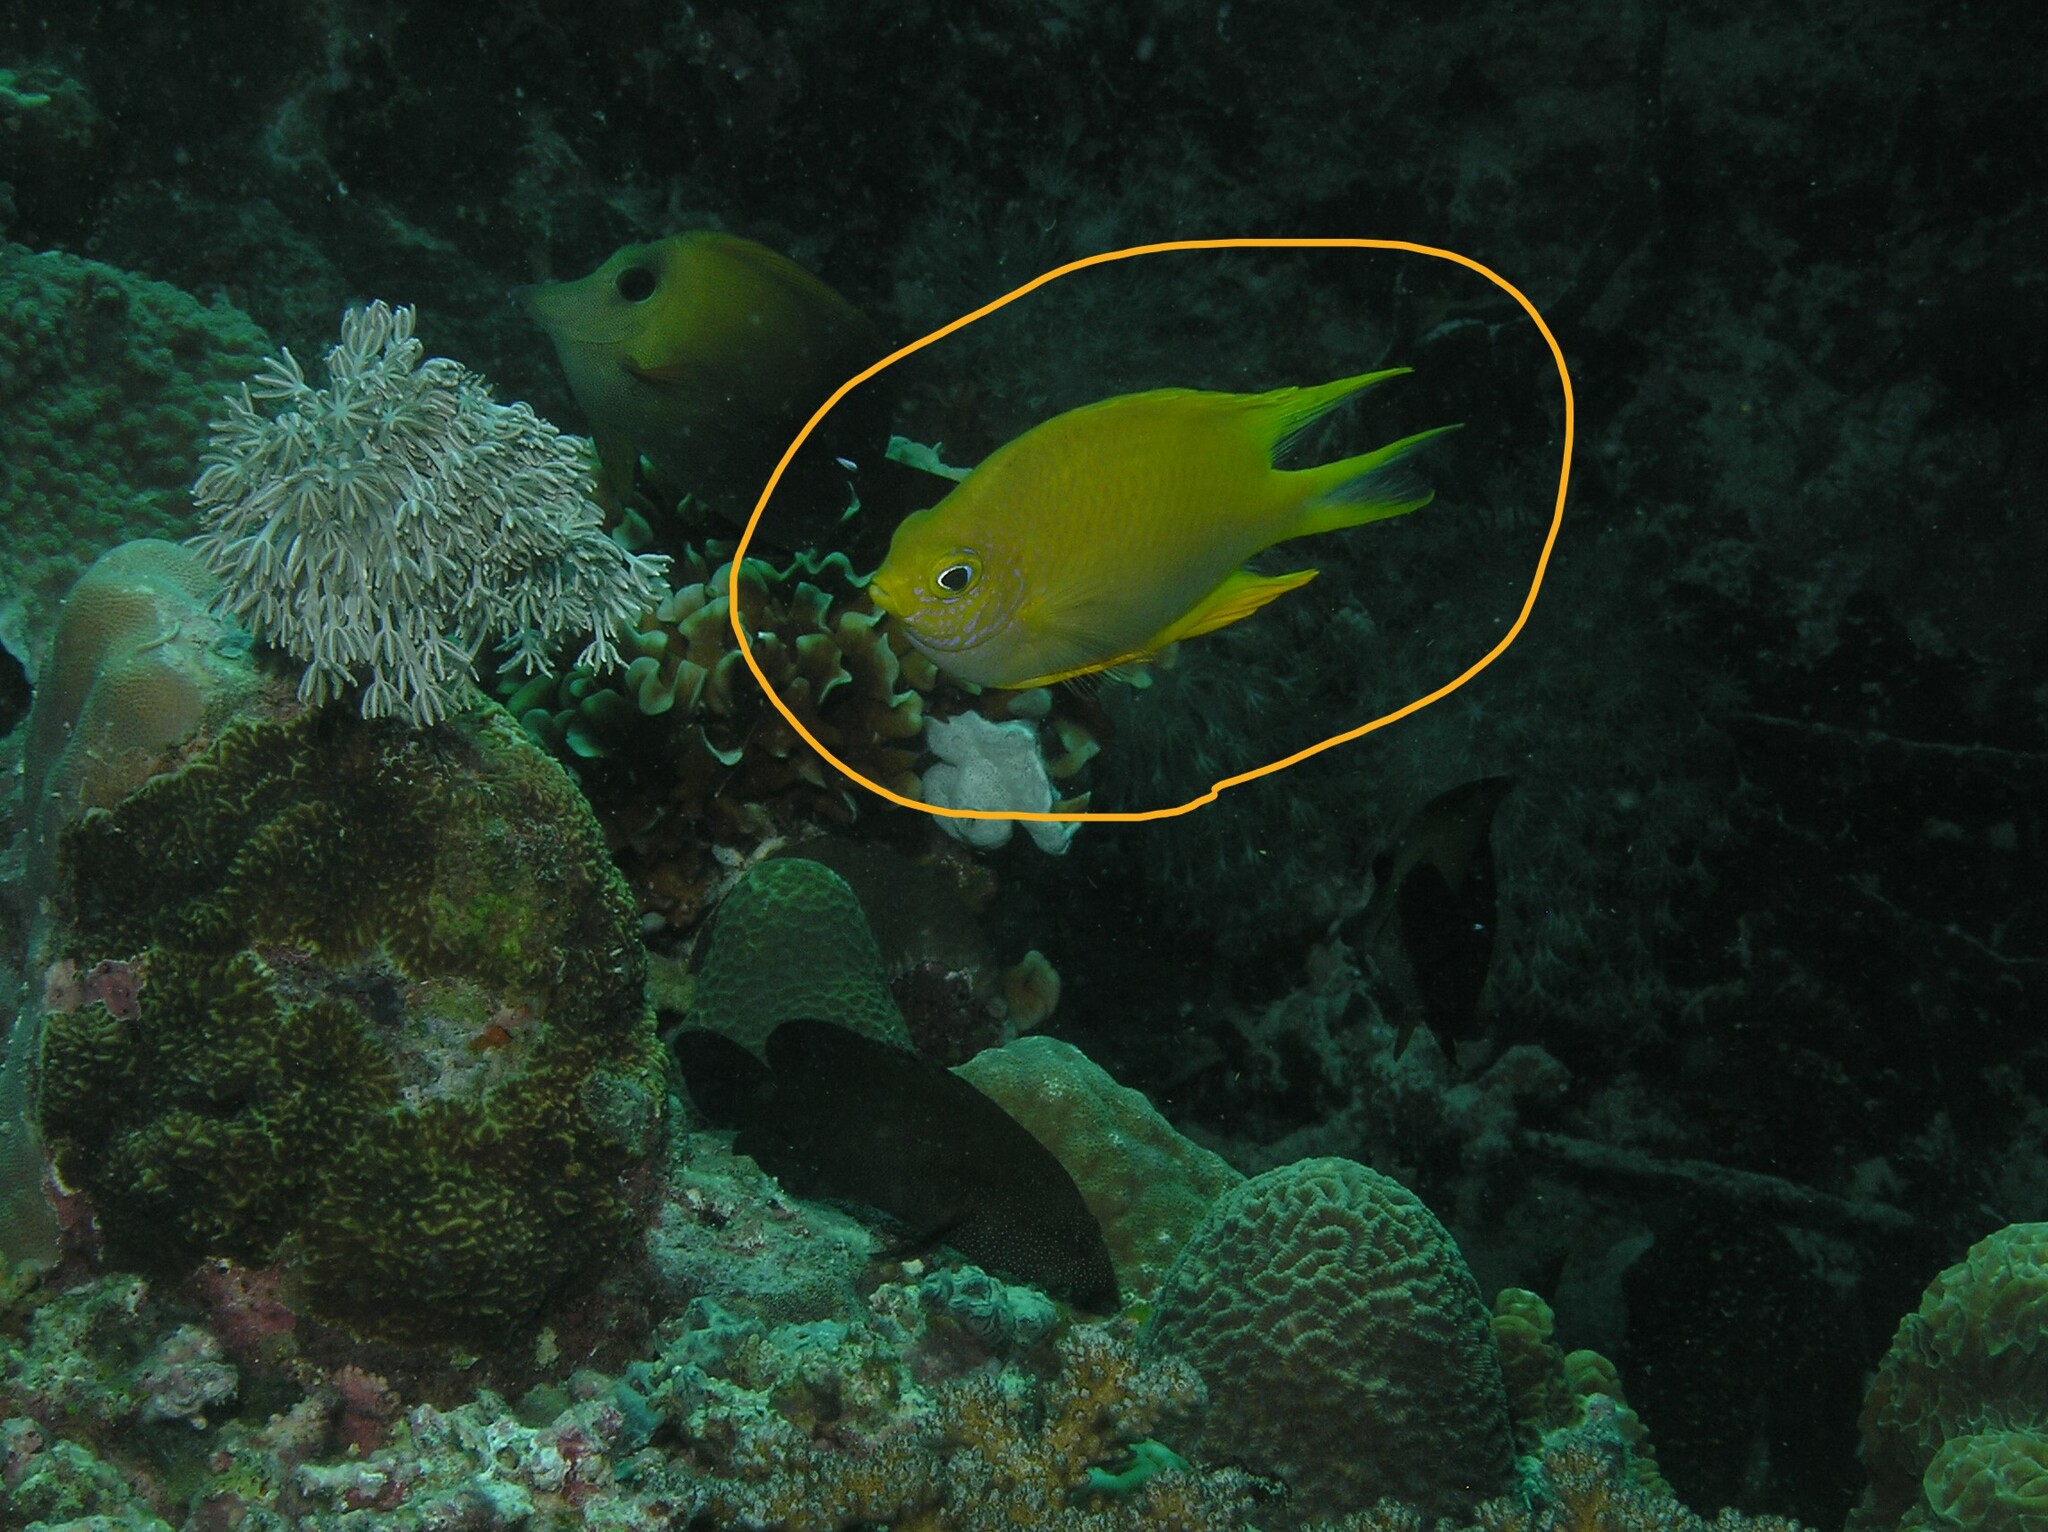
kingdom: Animalia
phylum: Chordata
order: Perciformes
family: Pomacentridae
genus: Amblyglyphidodon
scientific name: Amblyglyphidodon aureus
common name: Golden damsel
